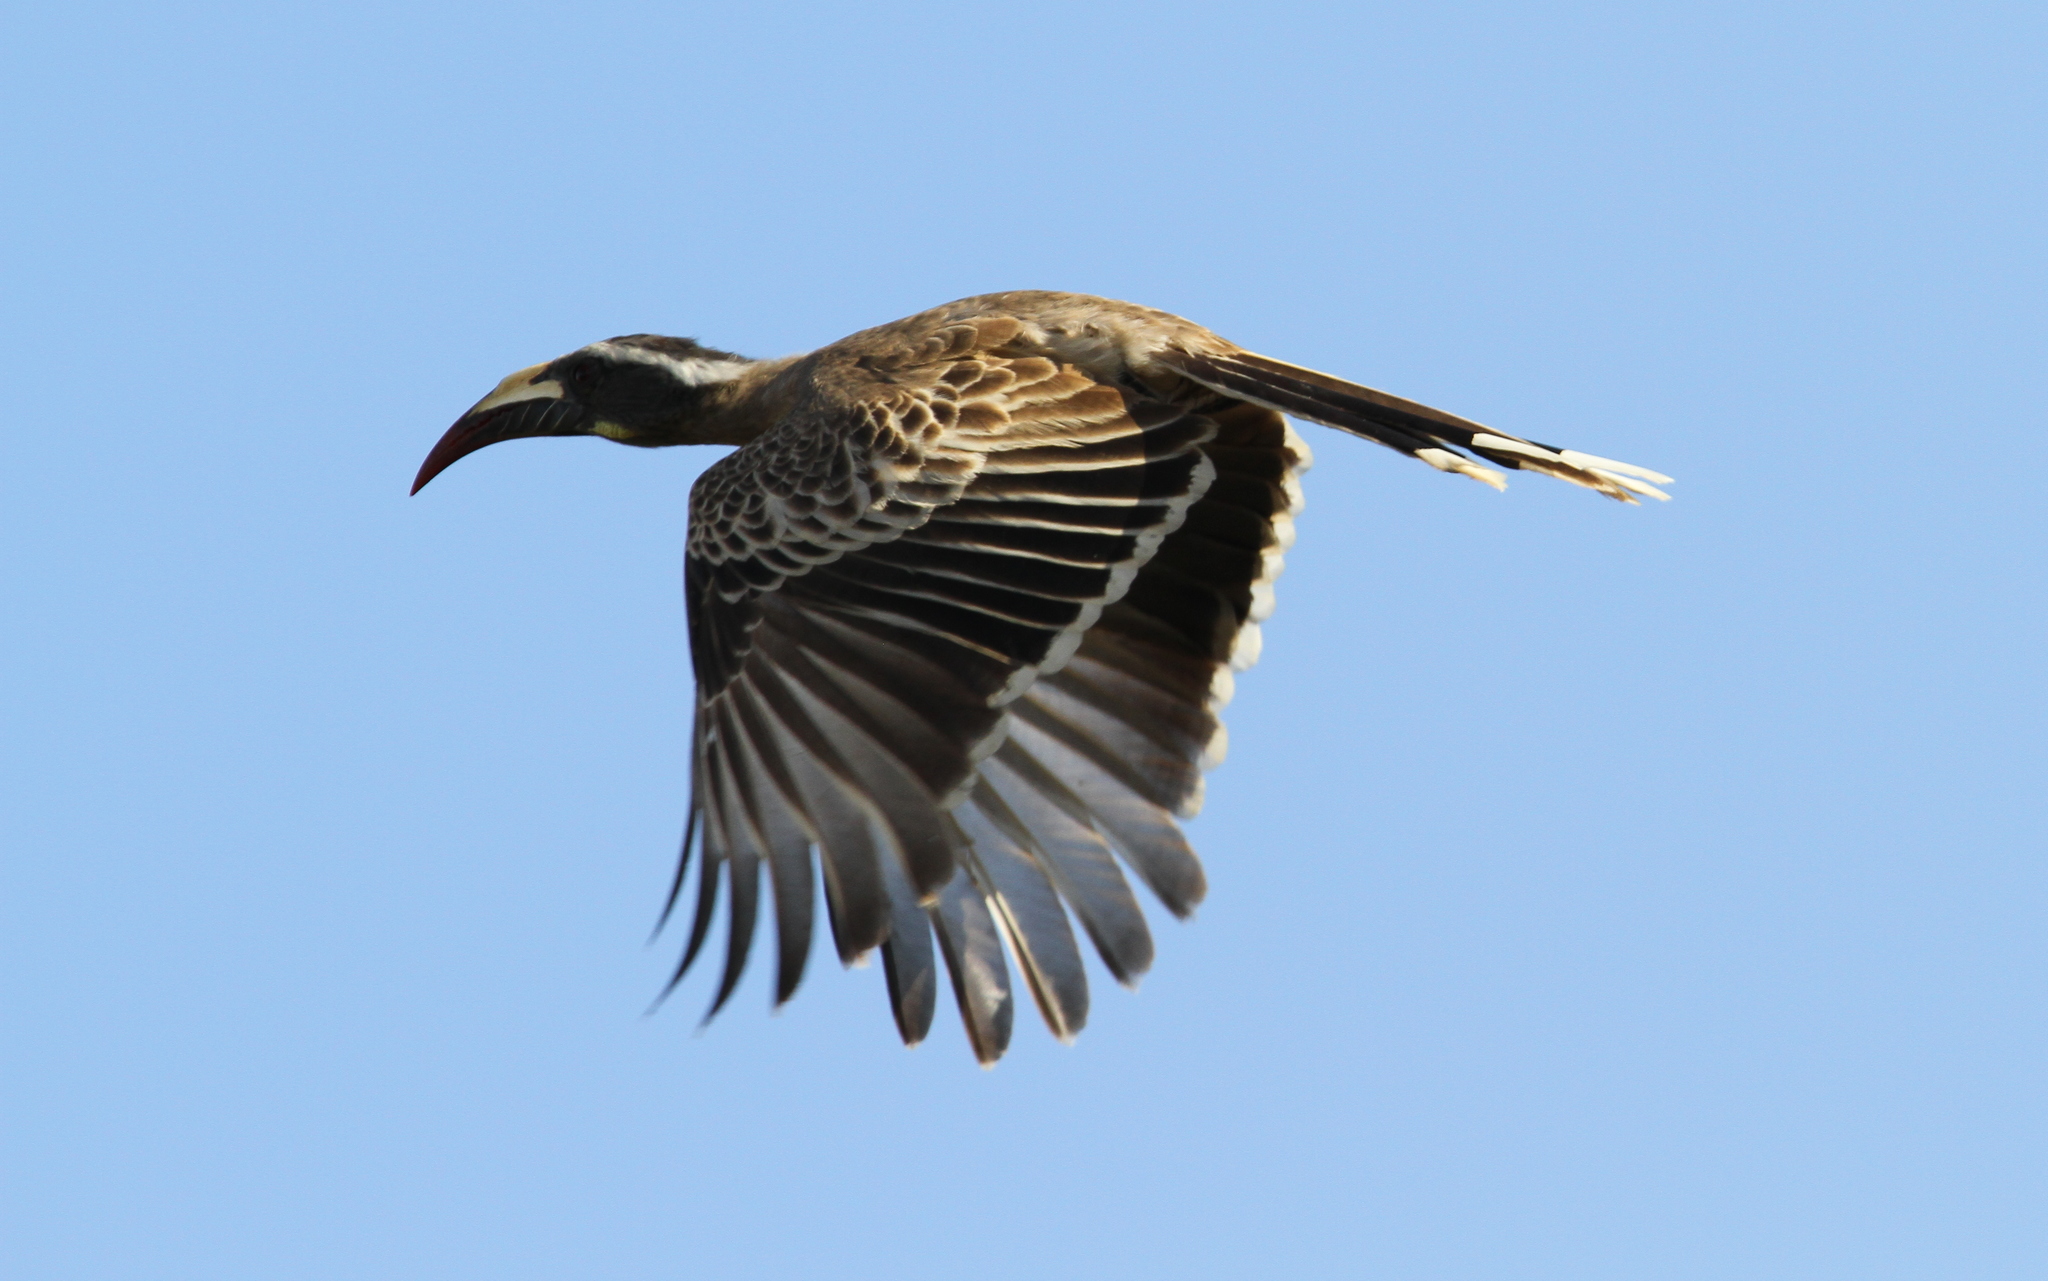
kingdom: Animalia
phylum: Chordata
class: Aves
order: Bucerotiformes
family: Bucerotidae
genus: Lophoceros
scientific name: Lophoceros nasutus
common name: African grey hornbill
